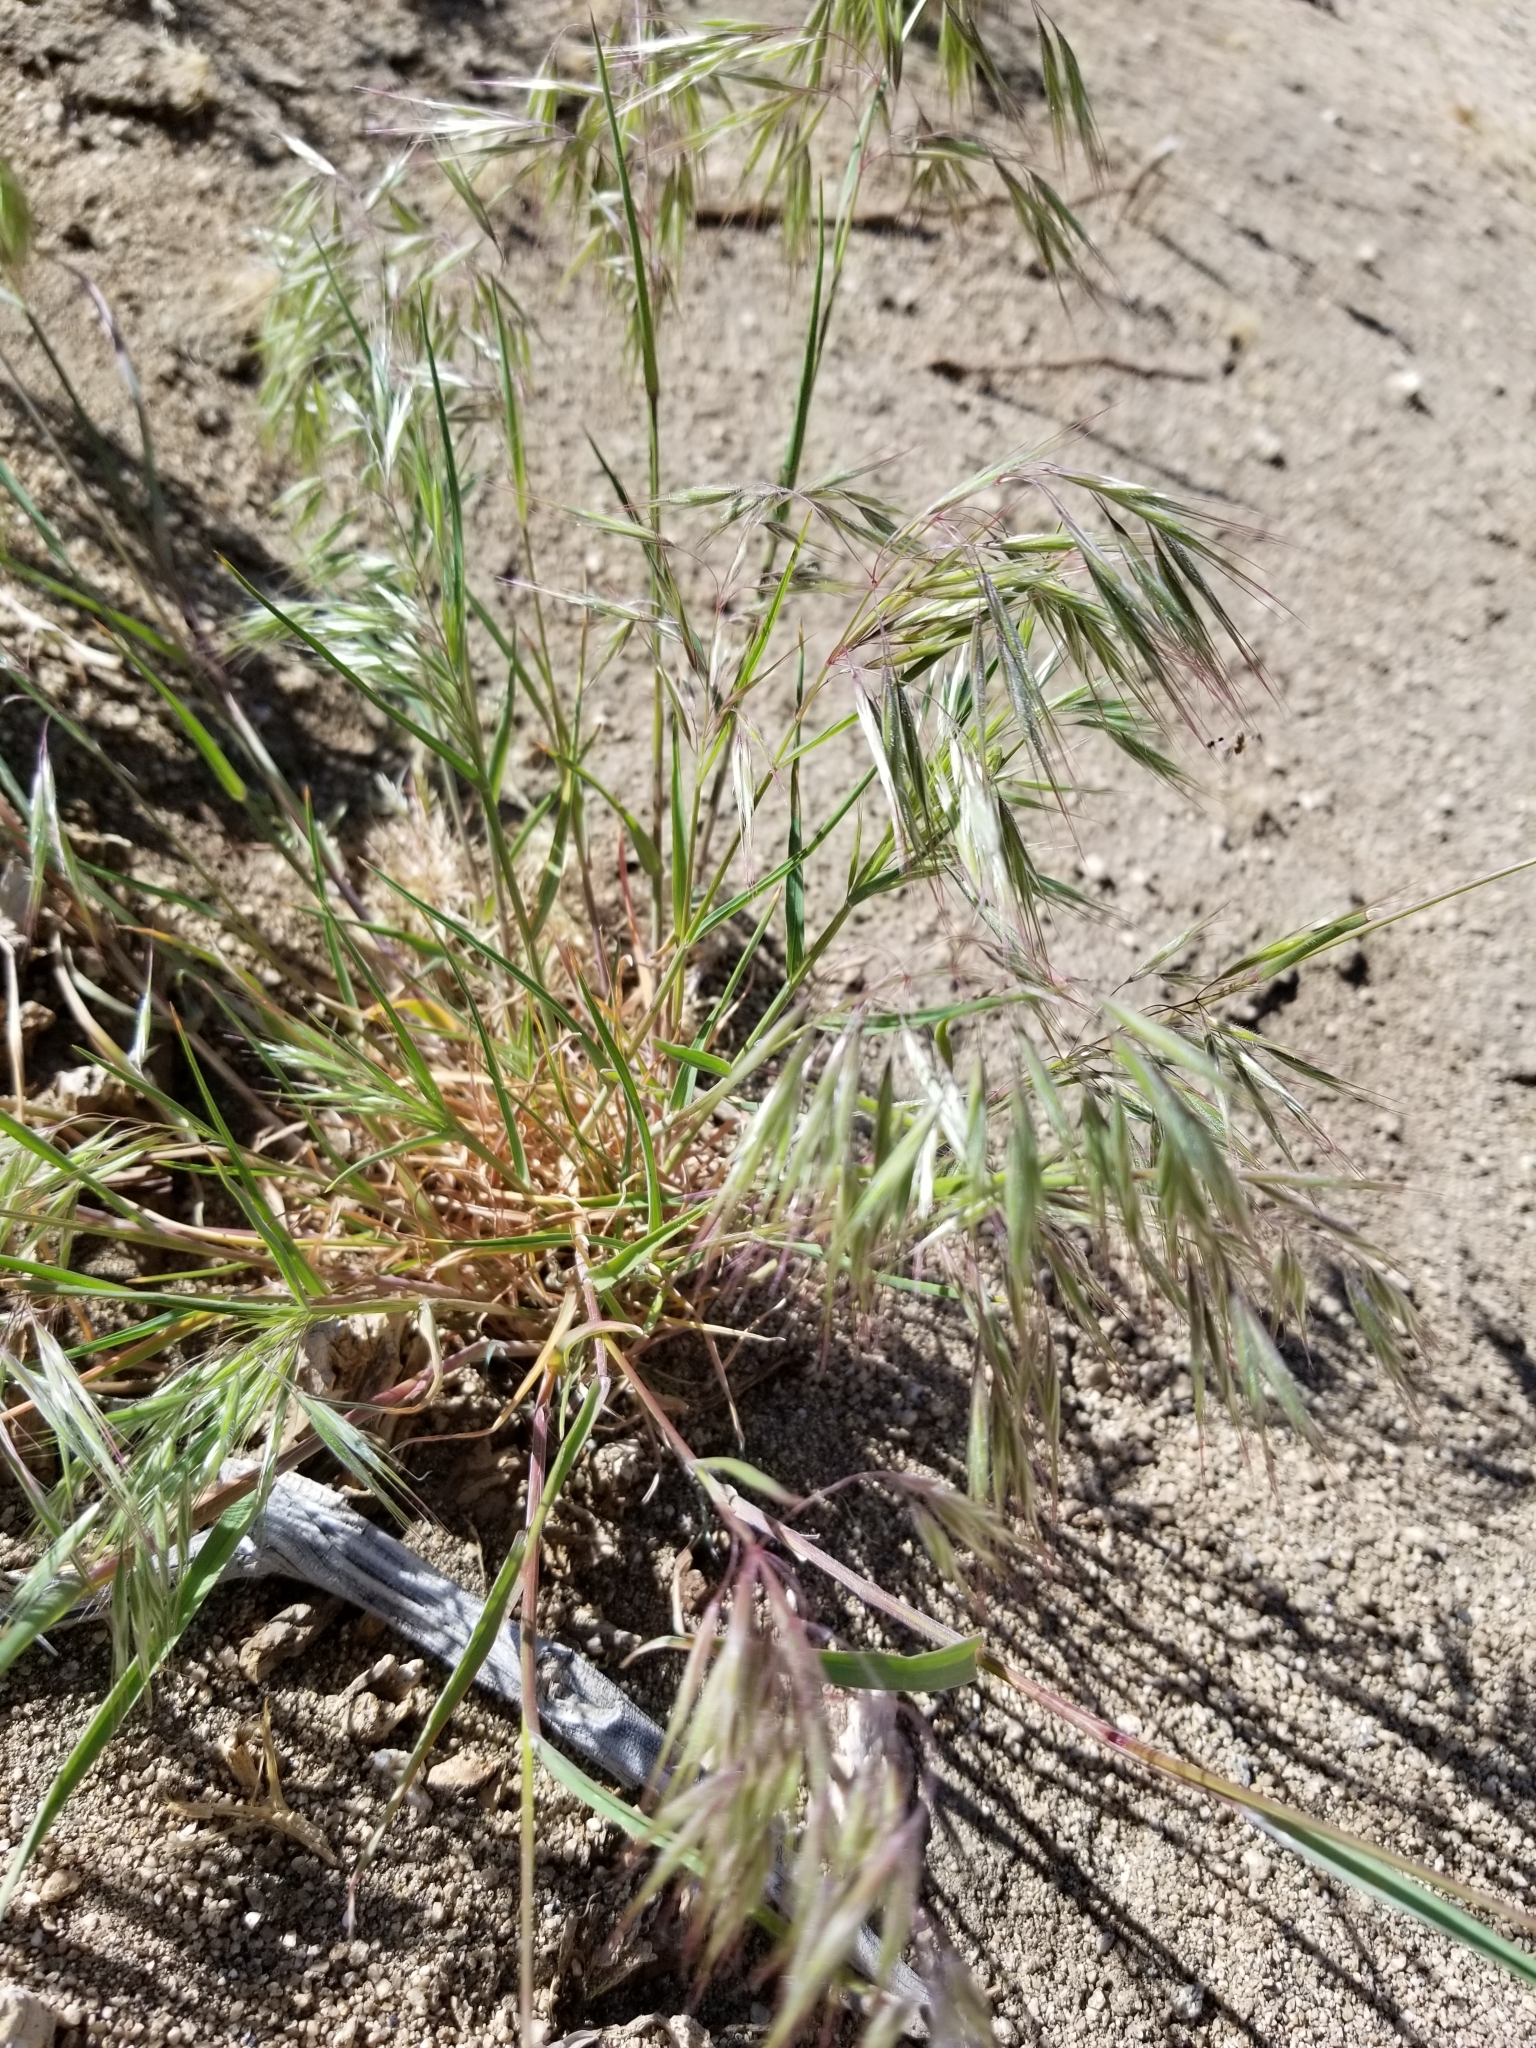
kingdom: Plantae
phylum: Tracheophyta
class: Liliopsida
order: Poales
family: Poaceae
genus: Bromus
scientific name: Bromus tectorum
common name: Cheatgrass
